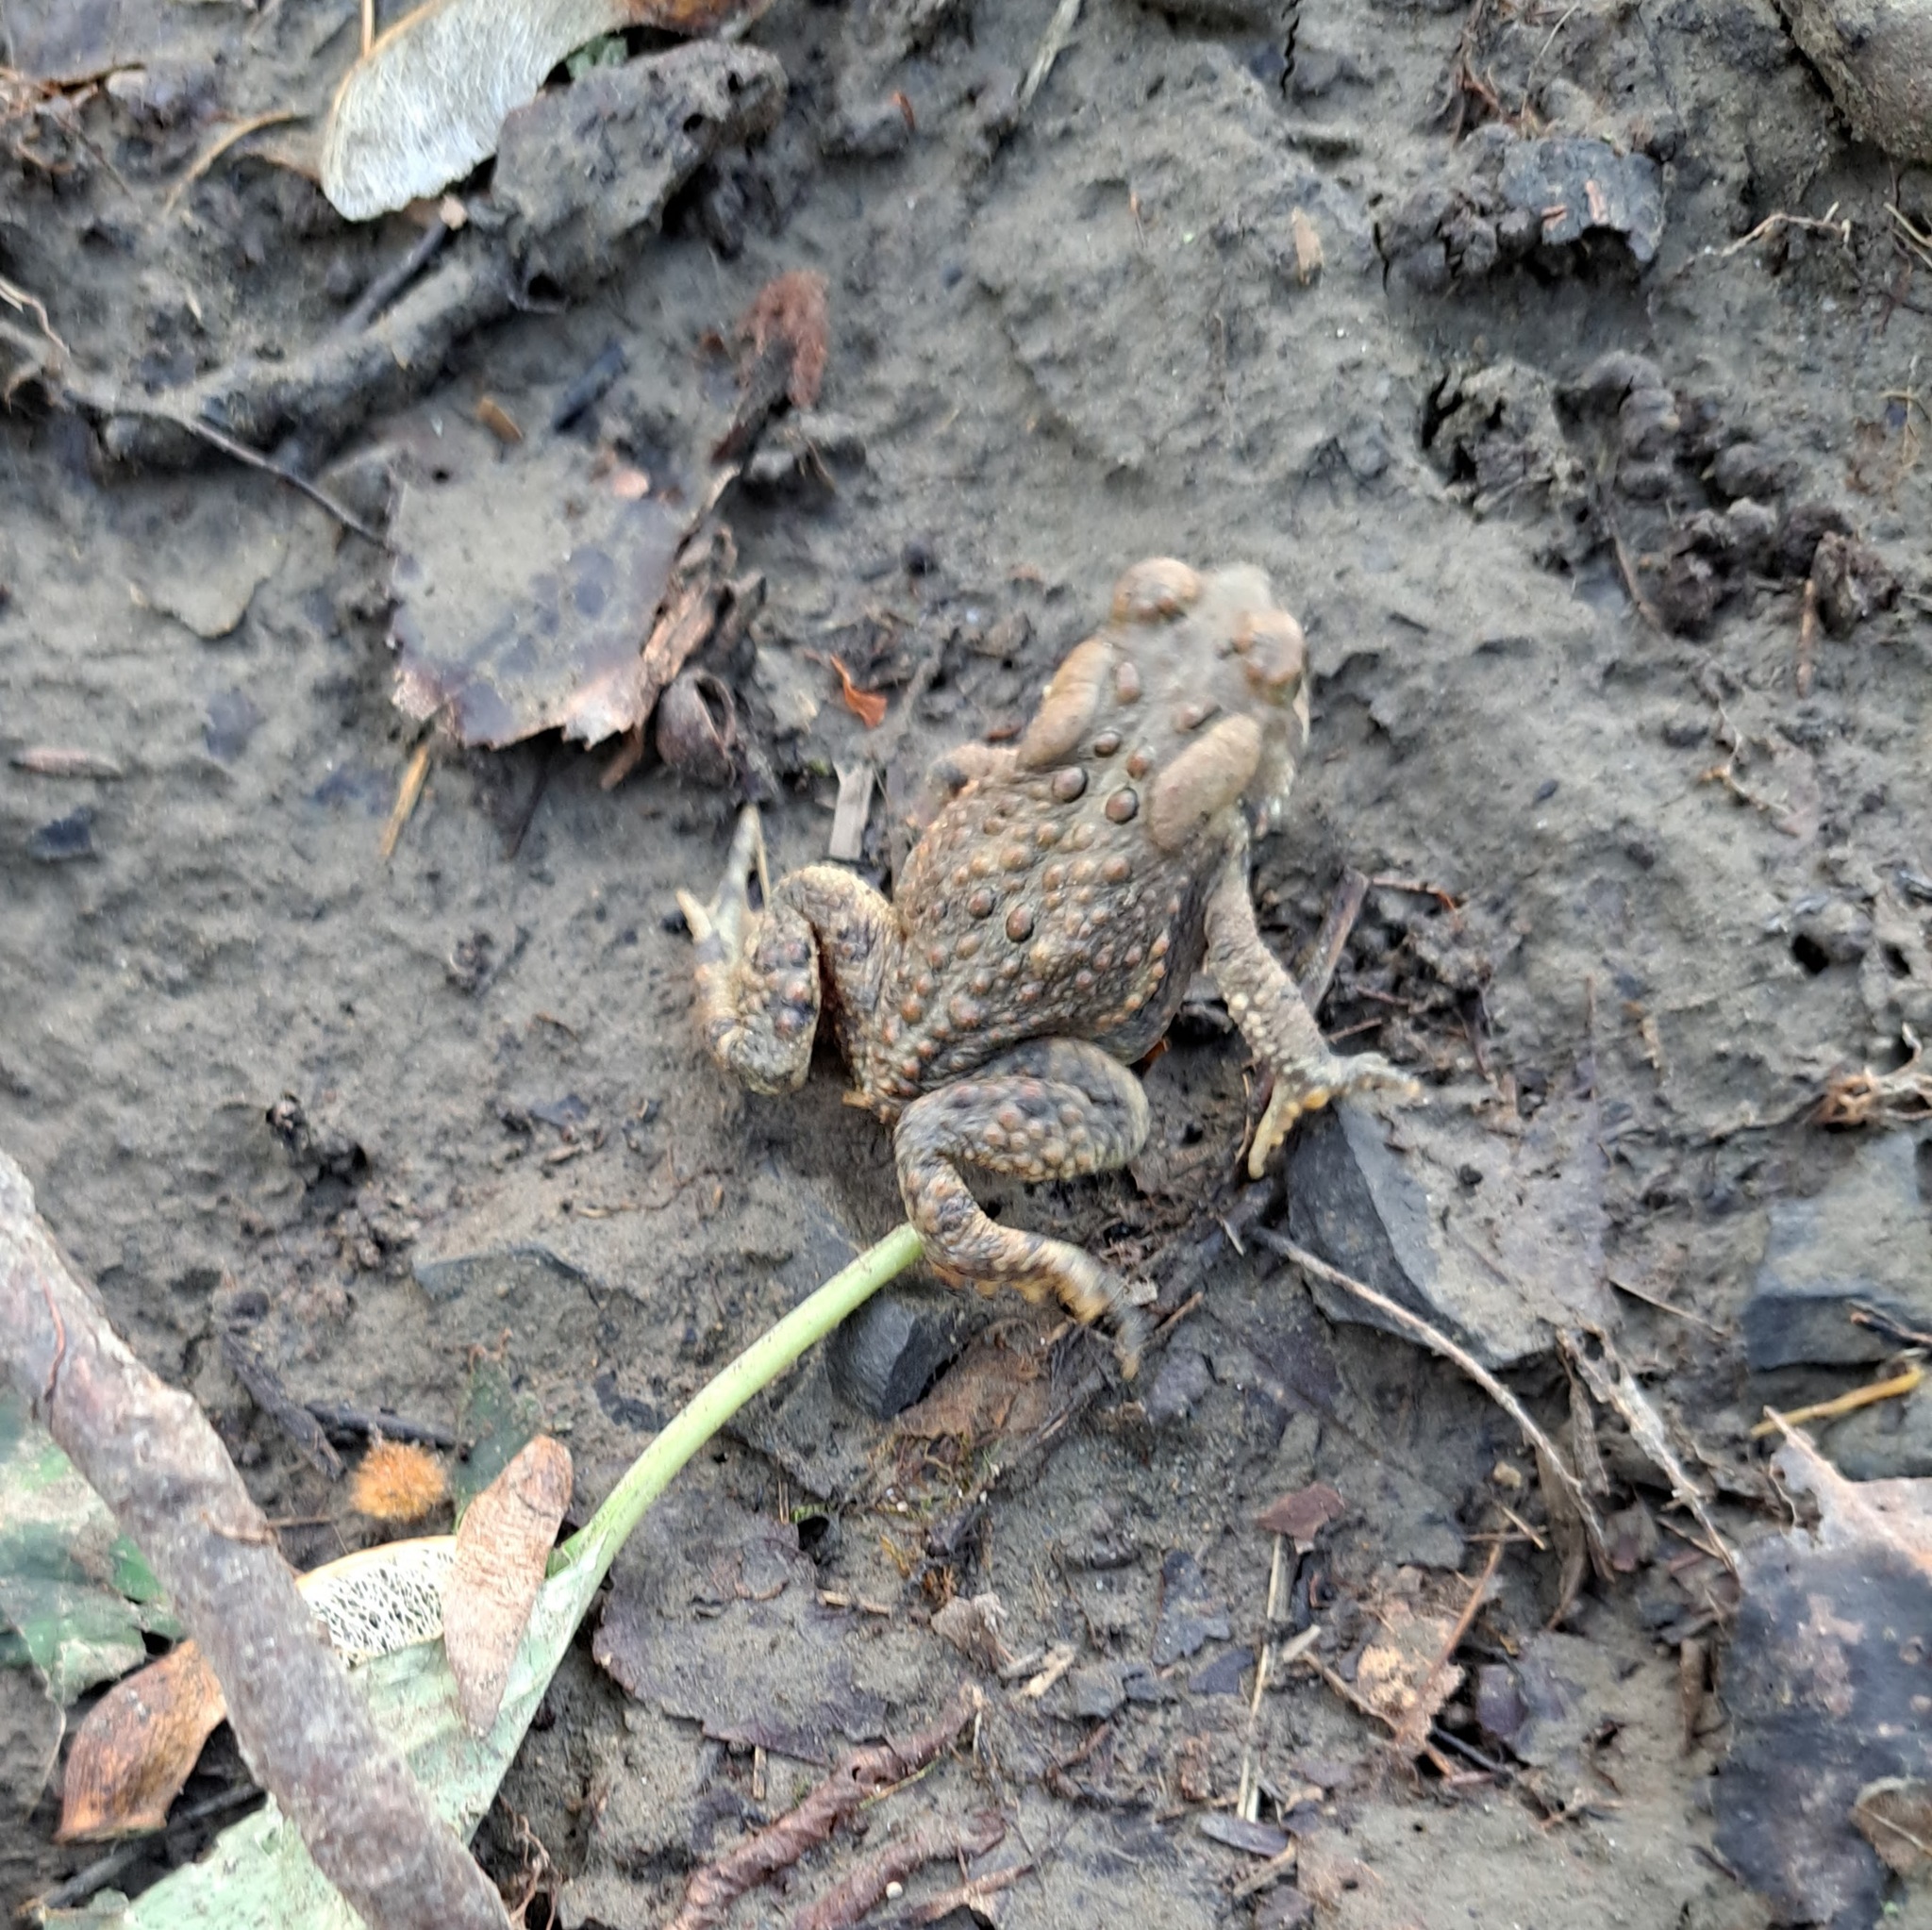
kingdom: Animalia
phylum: Chordata
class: Amphibia
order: Anura
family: Bufonidae
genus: Anaxyrus
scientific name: Anaxyrus americanus
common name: American toad
